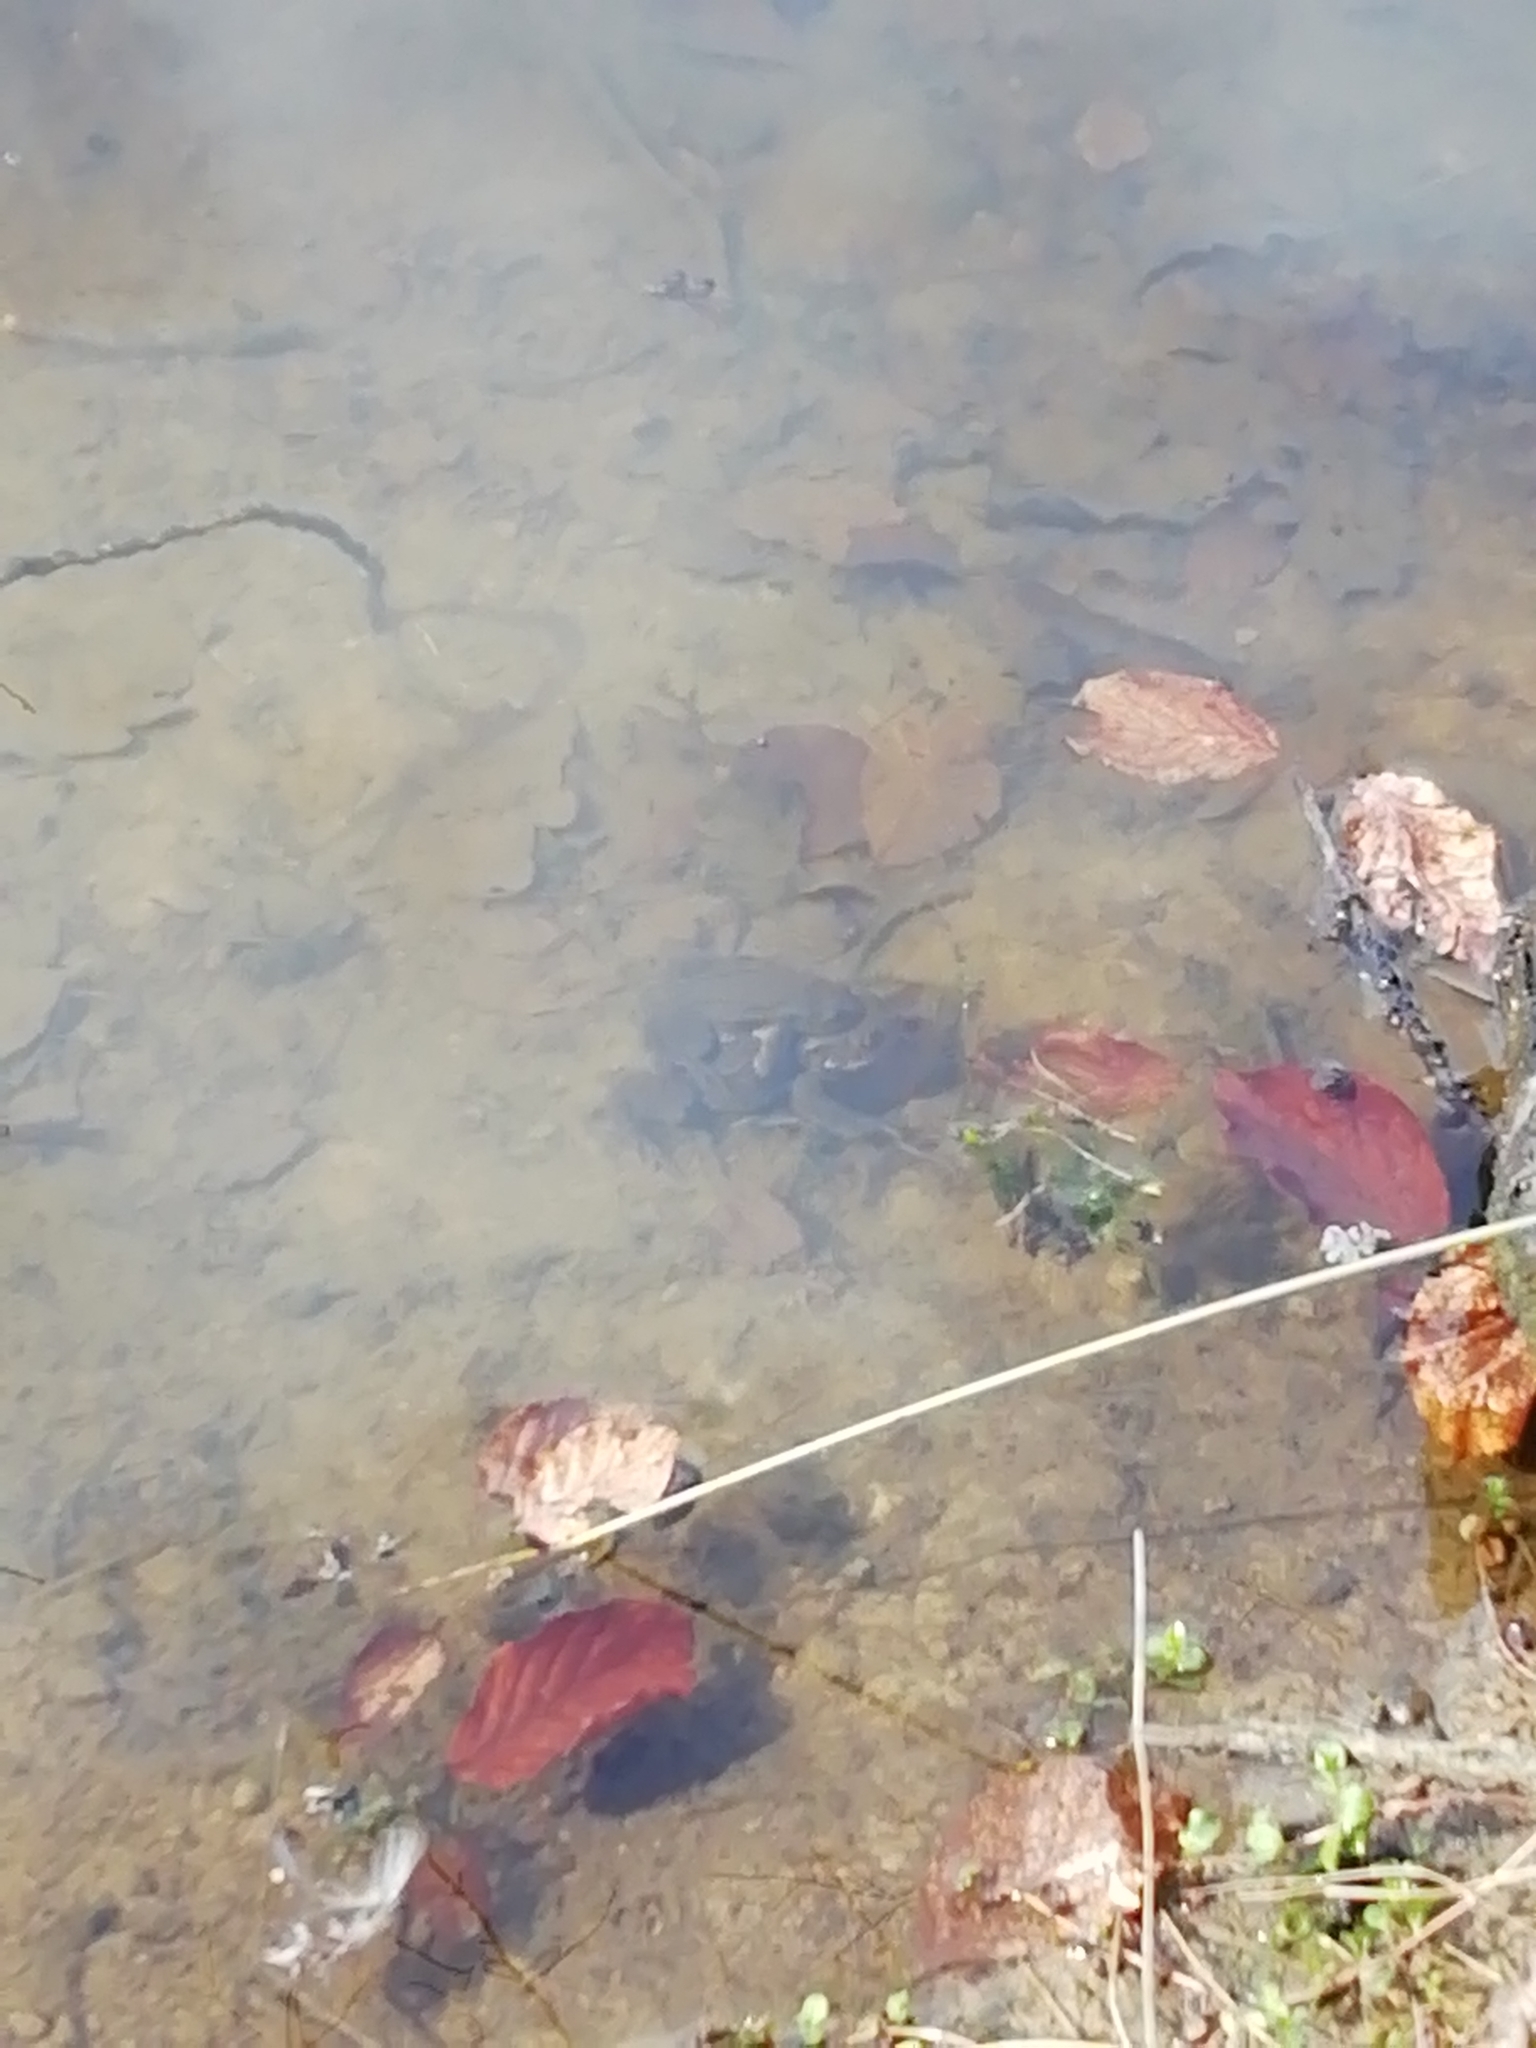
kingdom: Animalia
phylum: Chordata
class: Amphibia
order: Anura
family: Bufonidae
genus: Bufo
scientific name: Bufo bufo
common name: Common toad
